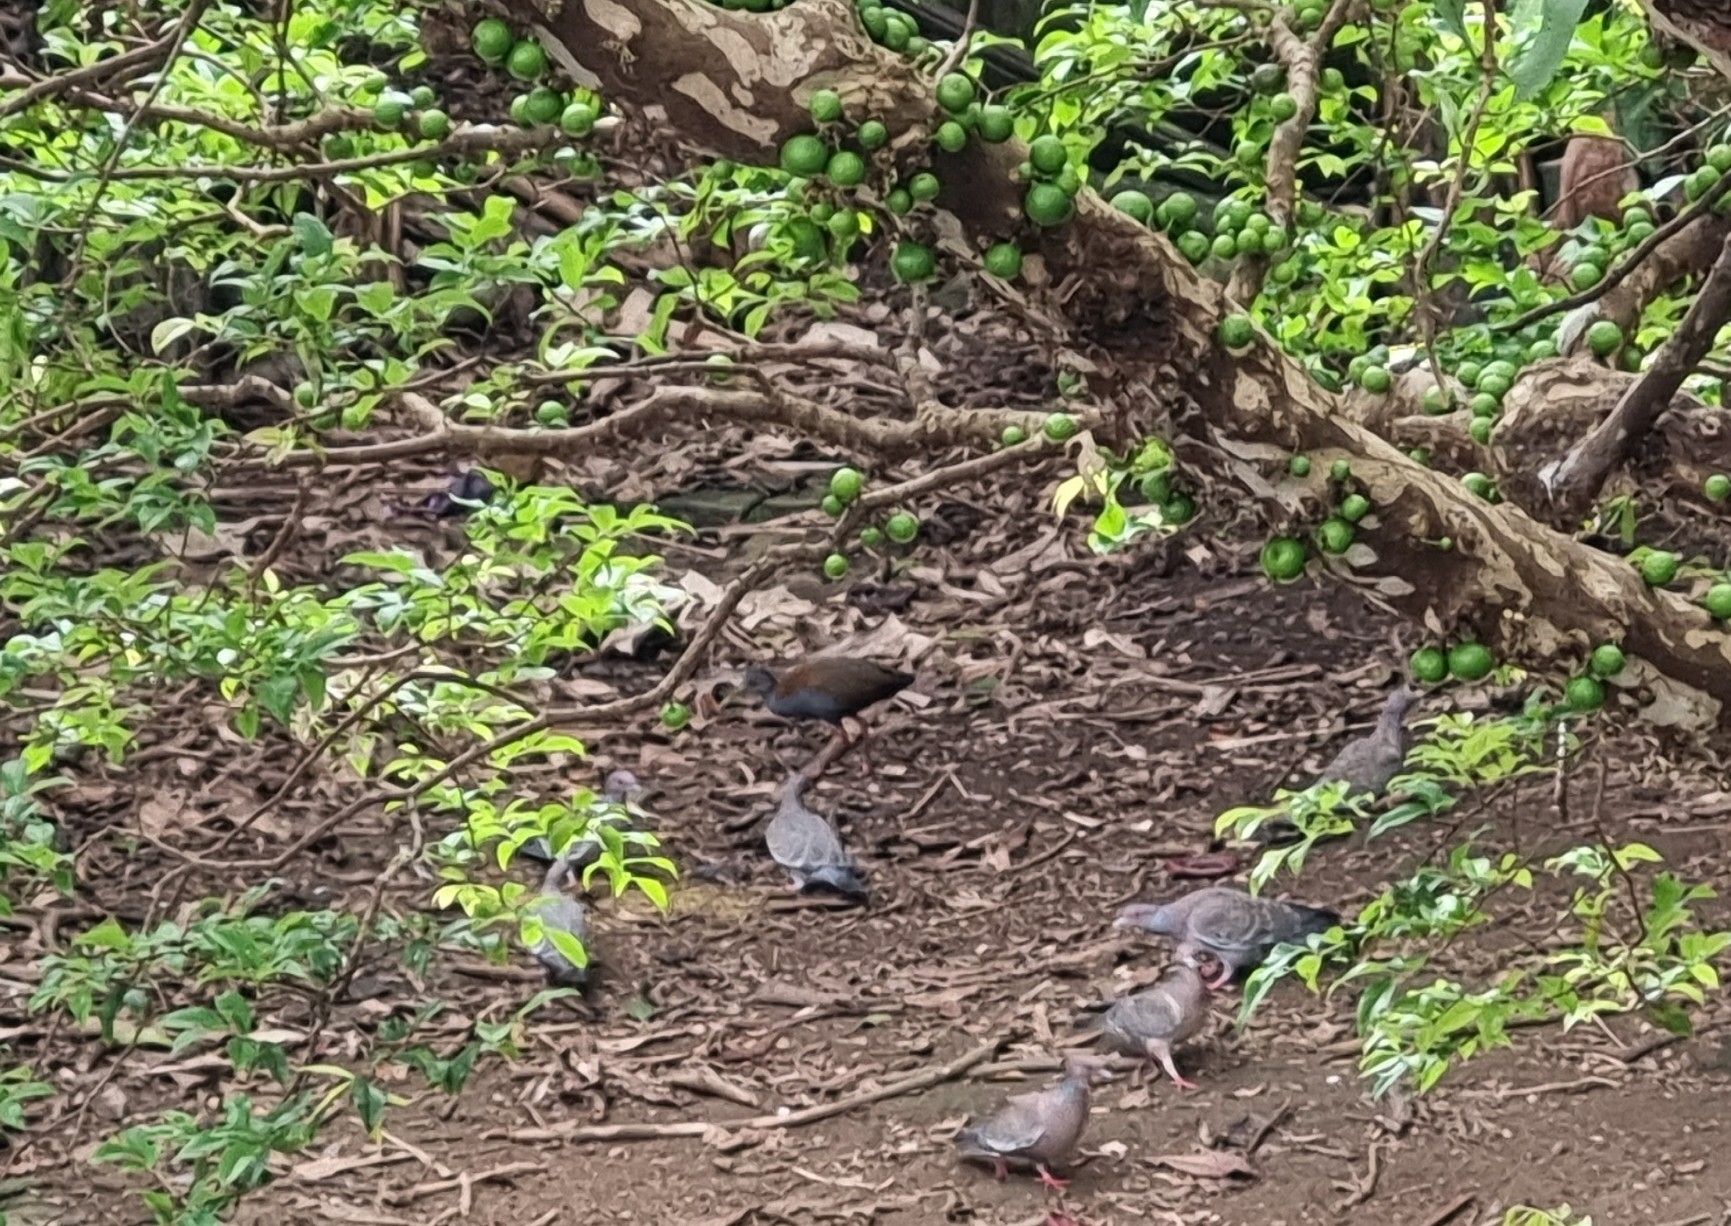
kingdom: Animalia
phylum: Chordata
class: Aves
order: Gruiformes
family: Rallidae
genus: Aramides
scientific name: Aramides saracura
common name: Slaty-breasted wood rail
